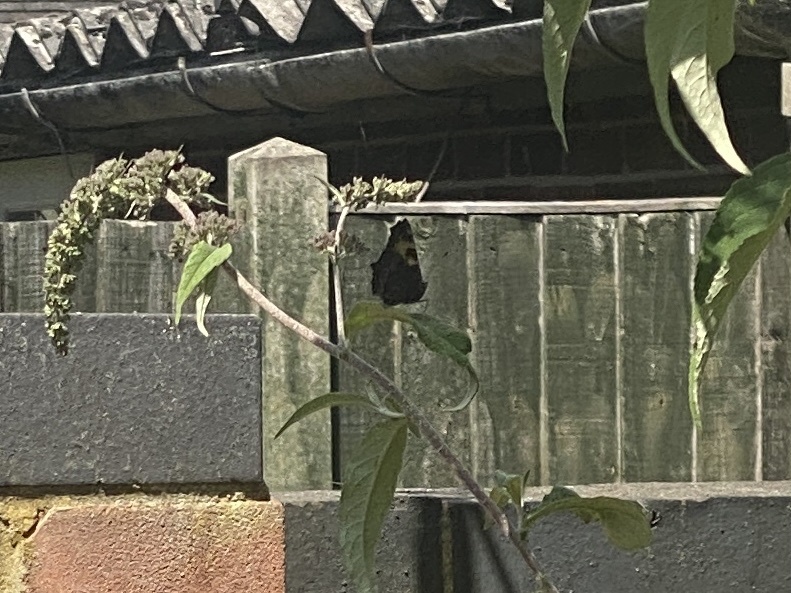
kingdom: Animalia
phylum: Arthropoda
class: Insecta
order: Lepidoptera
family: Nymphalidae
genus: Aglais
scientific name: Aglais urticae
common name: Small tortoiseshell
